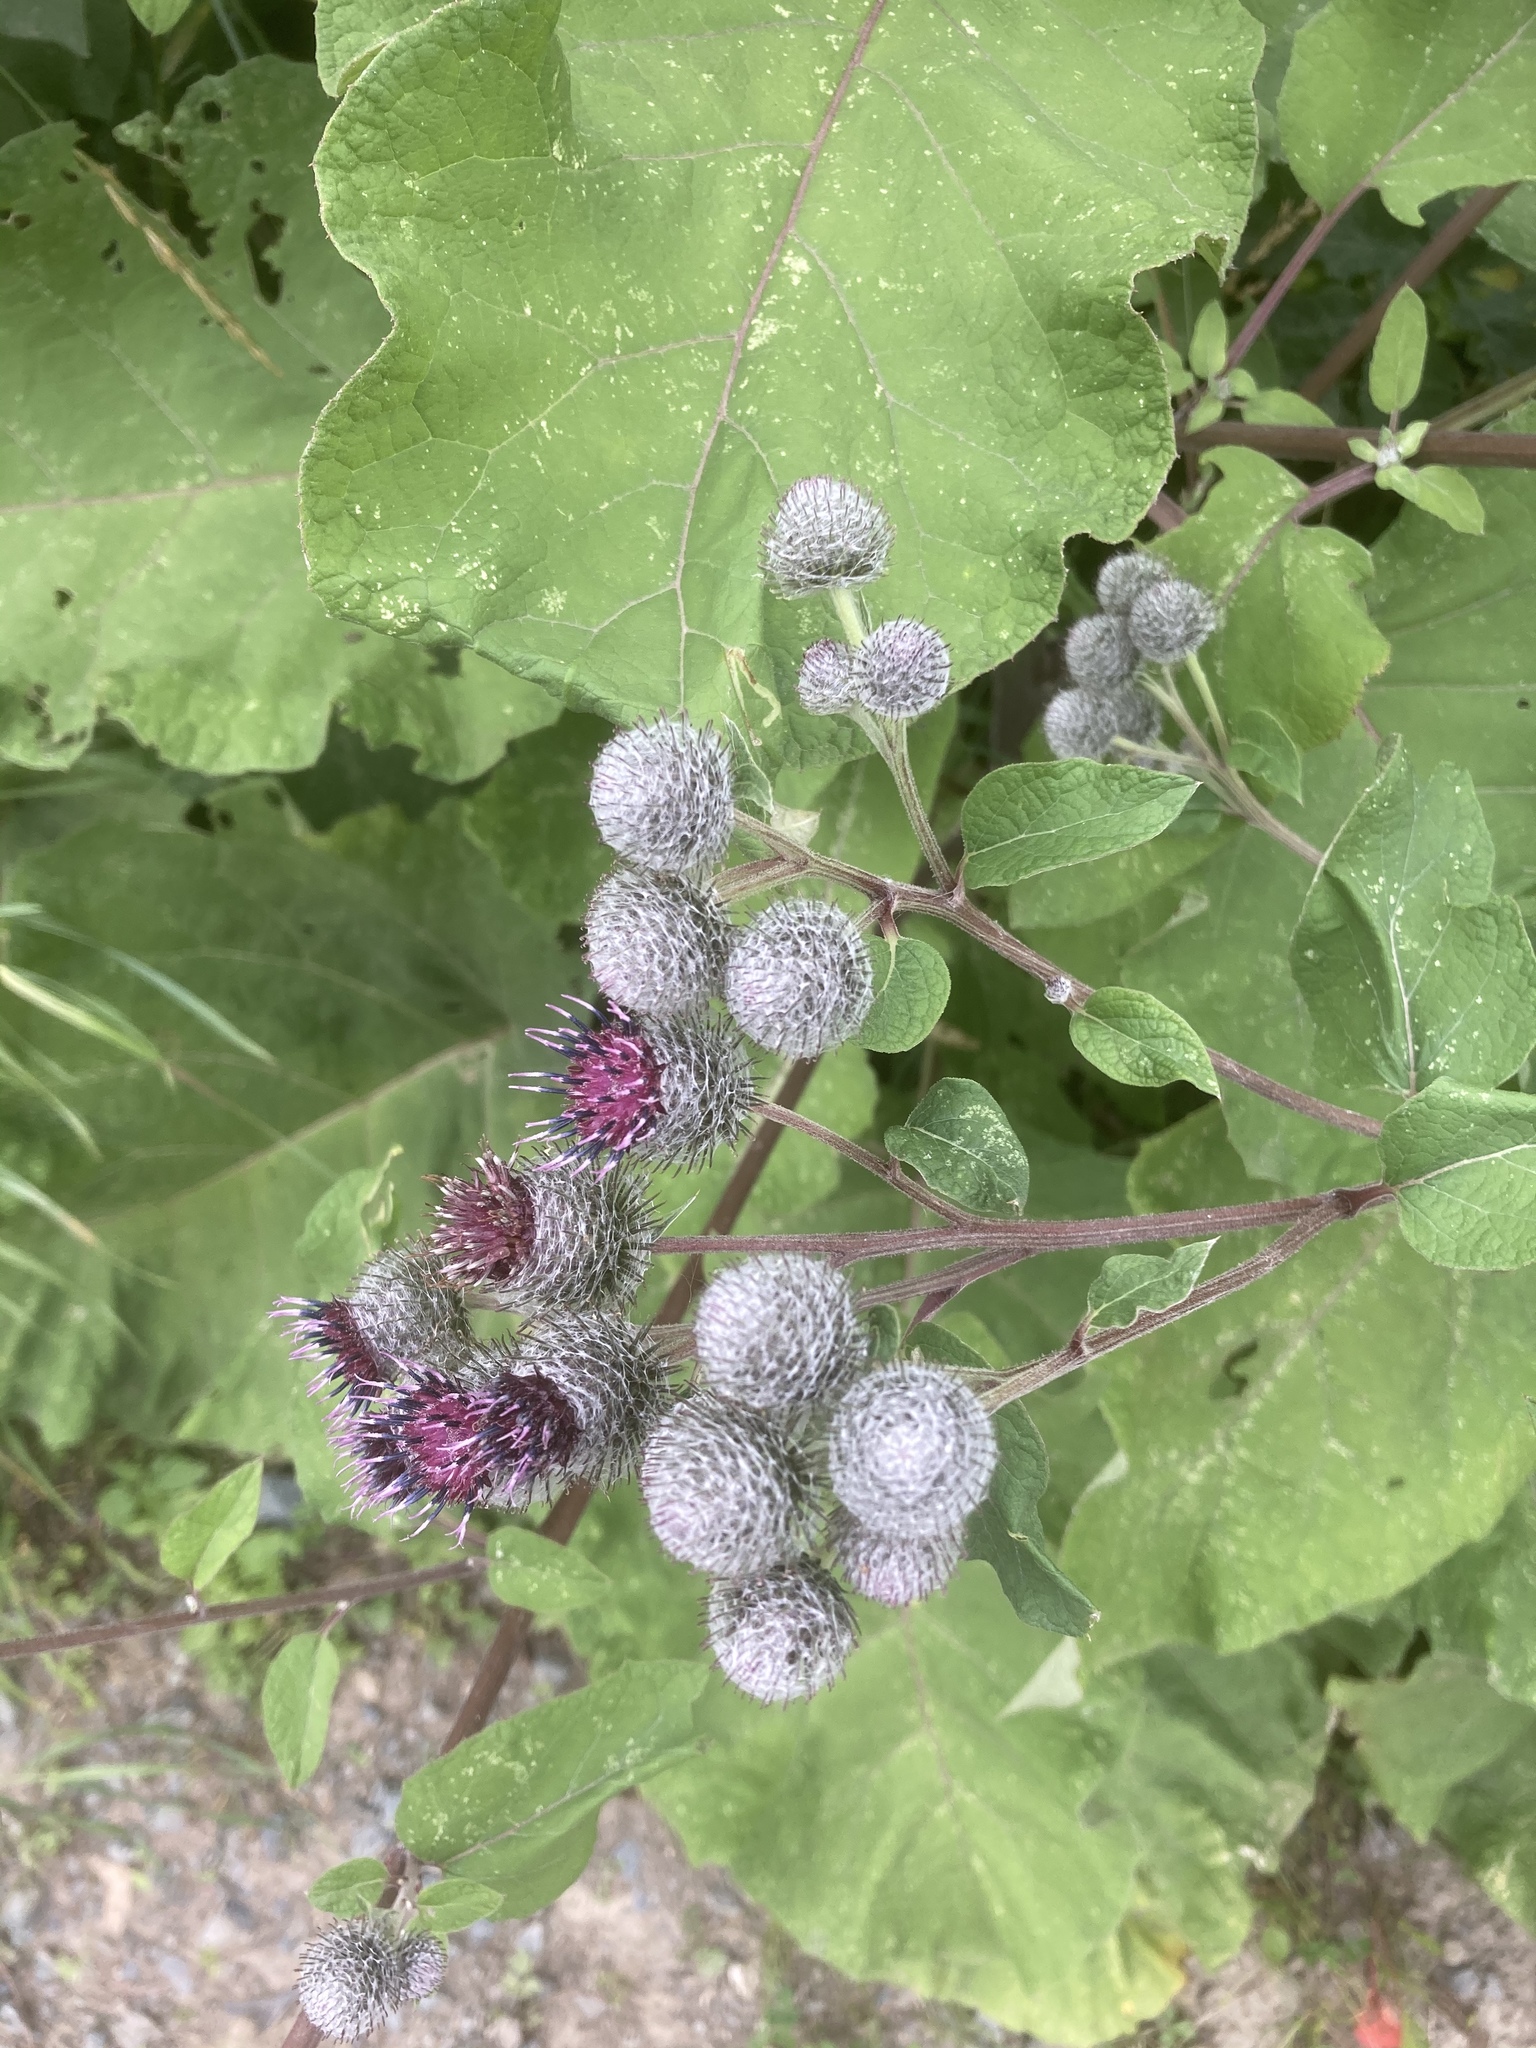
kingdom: Plantae
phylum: Tracheophyta
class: Magnoliopsida
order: Asterales
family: Asteraceae
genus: Arctium
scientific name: Arctium tomentosum
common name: Woolly burdock
